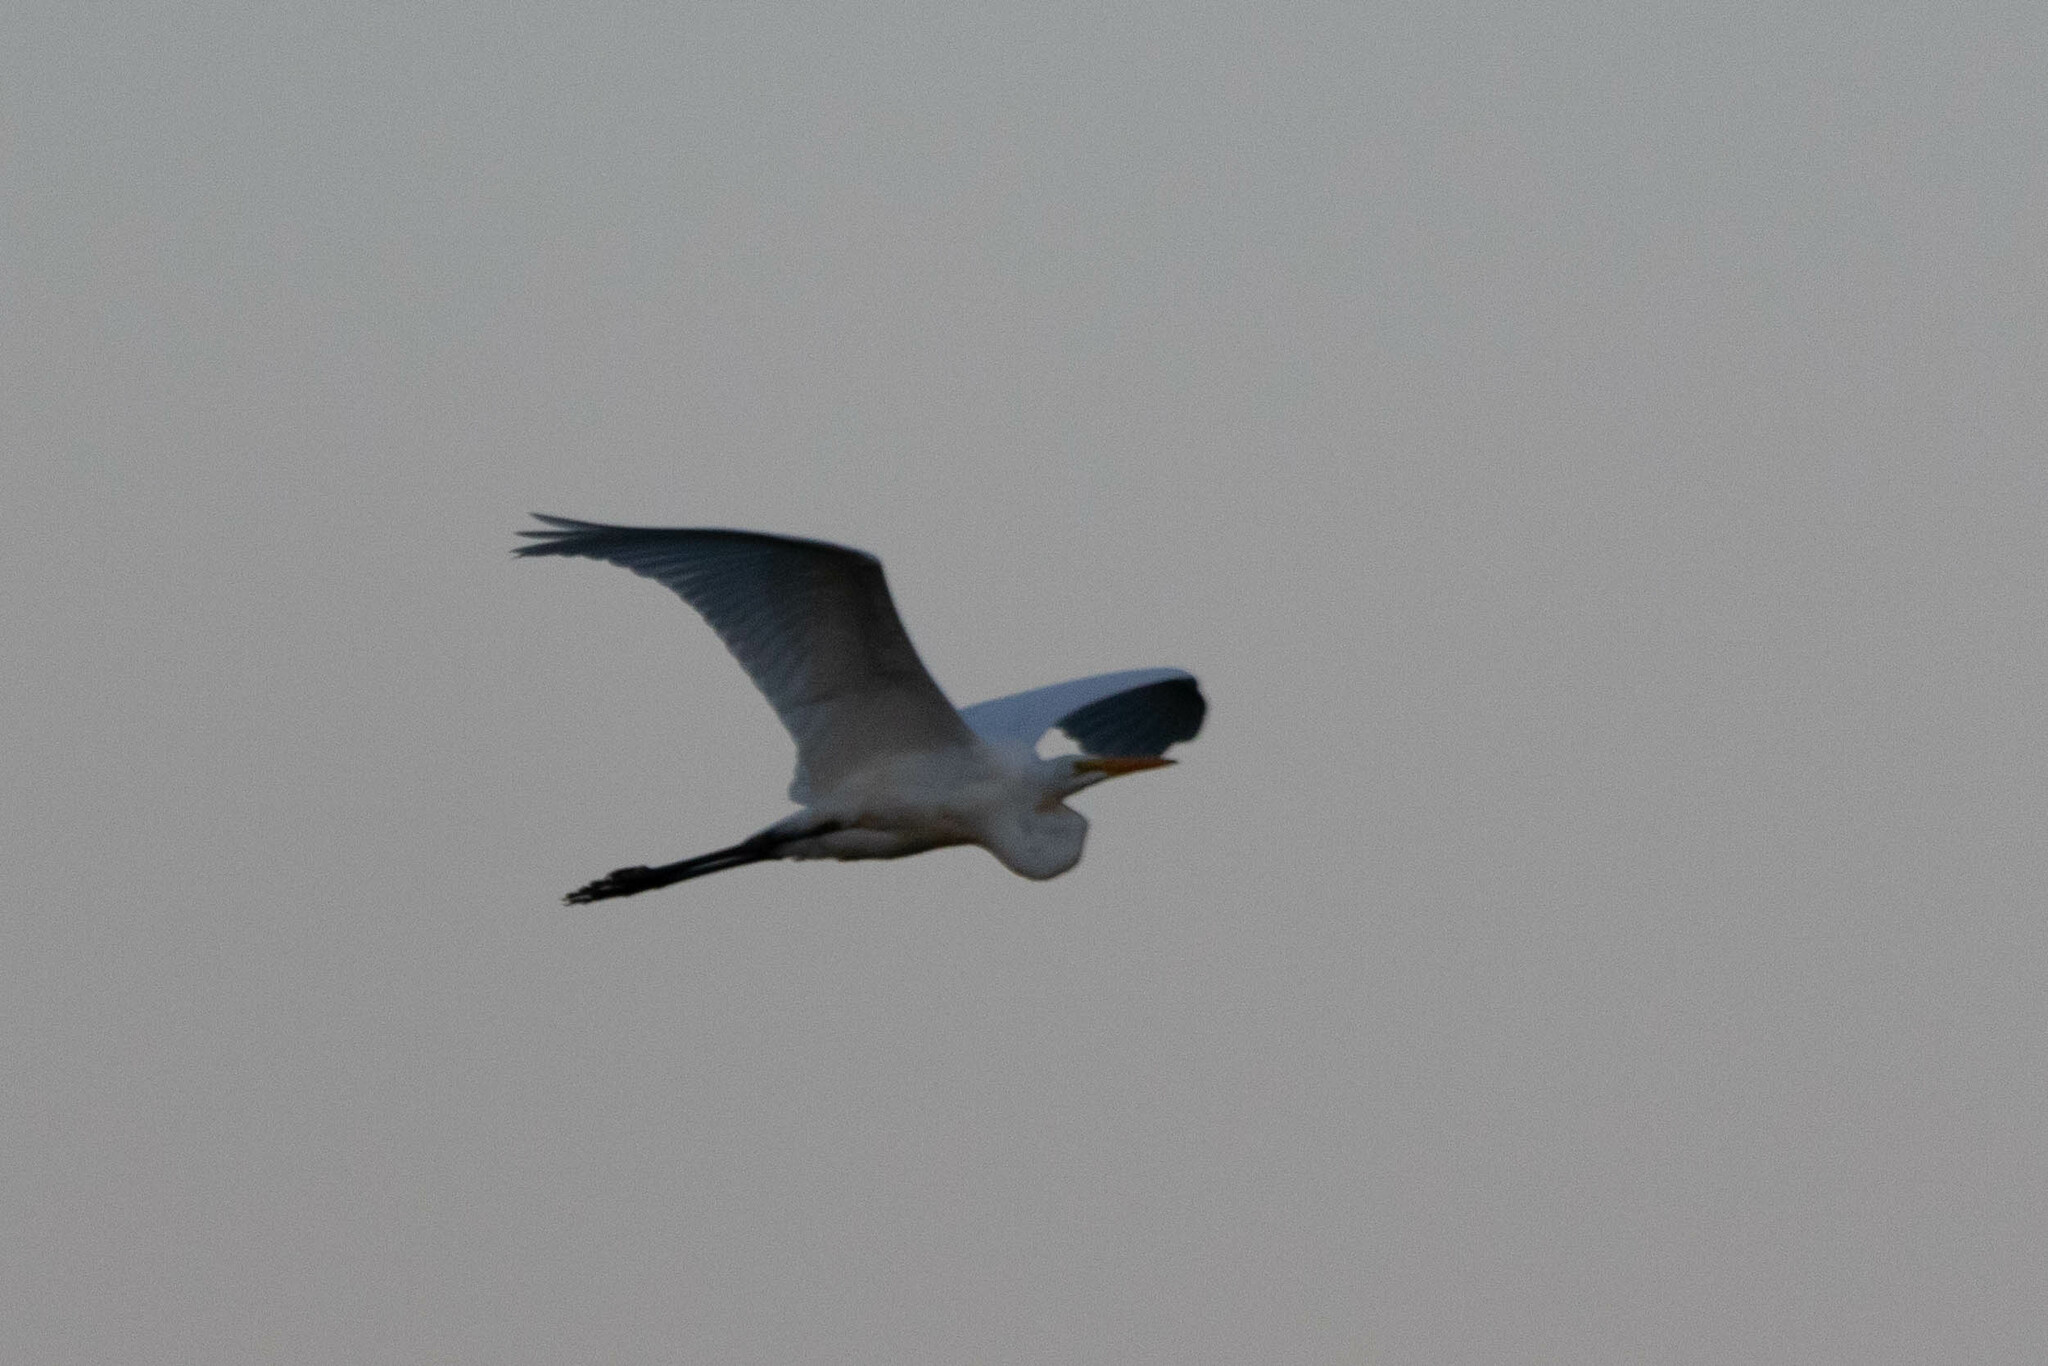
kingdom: Animalia
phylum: Chordata
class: Aves
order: Pelecaniformes
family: Ardeidae
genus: Ardea
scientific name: Ardea alba
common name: Great egret
